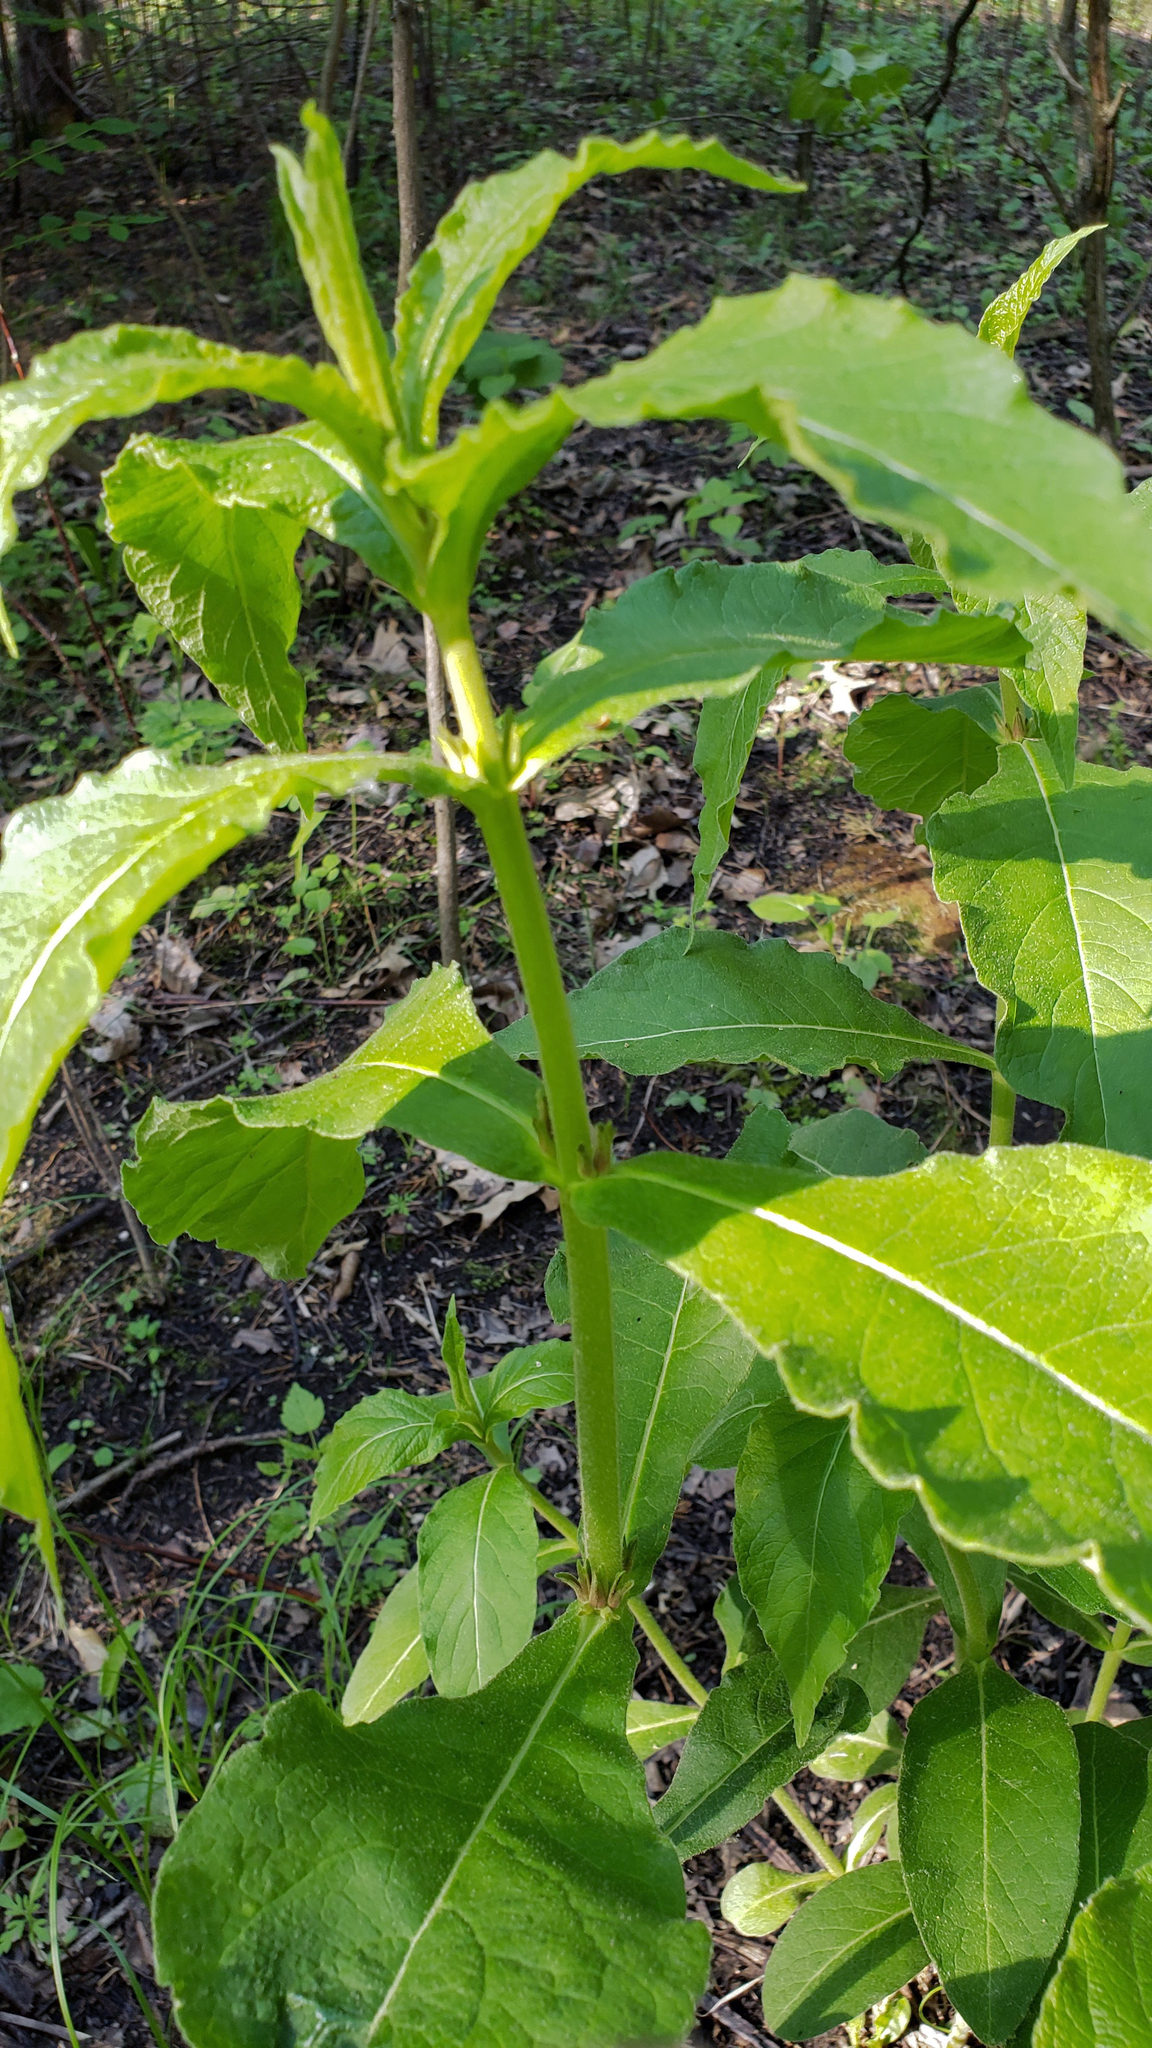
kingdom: Plantae
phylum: Tracheophyta
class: Magnoliopsida
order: Dipsacales
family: Caprifoliaceae
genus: Triosteum
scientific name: Triosteum aurantiacum
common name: Coffee tinker's-weed
